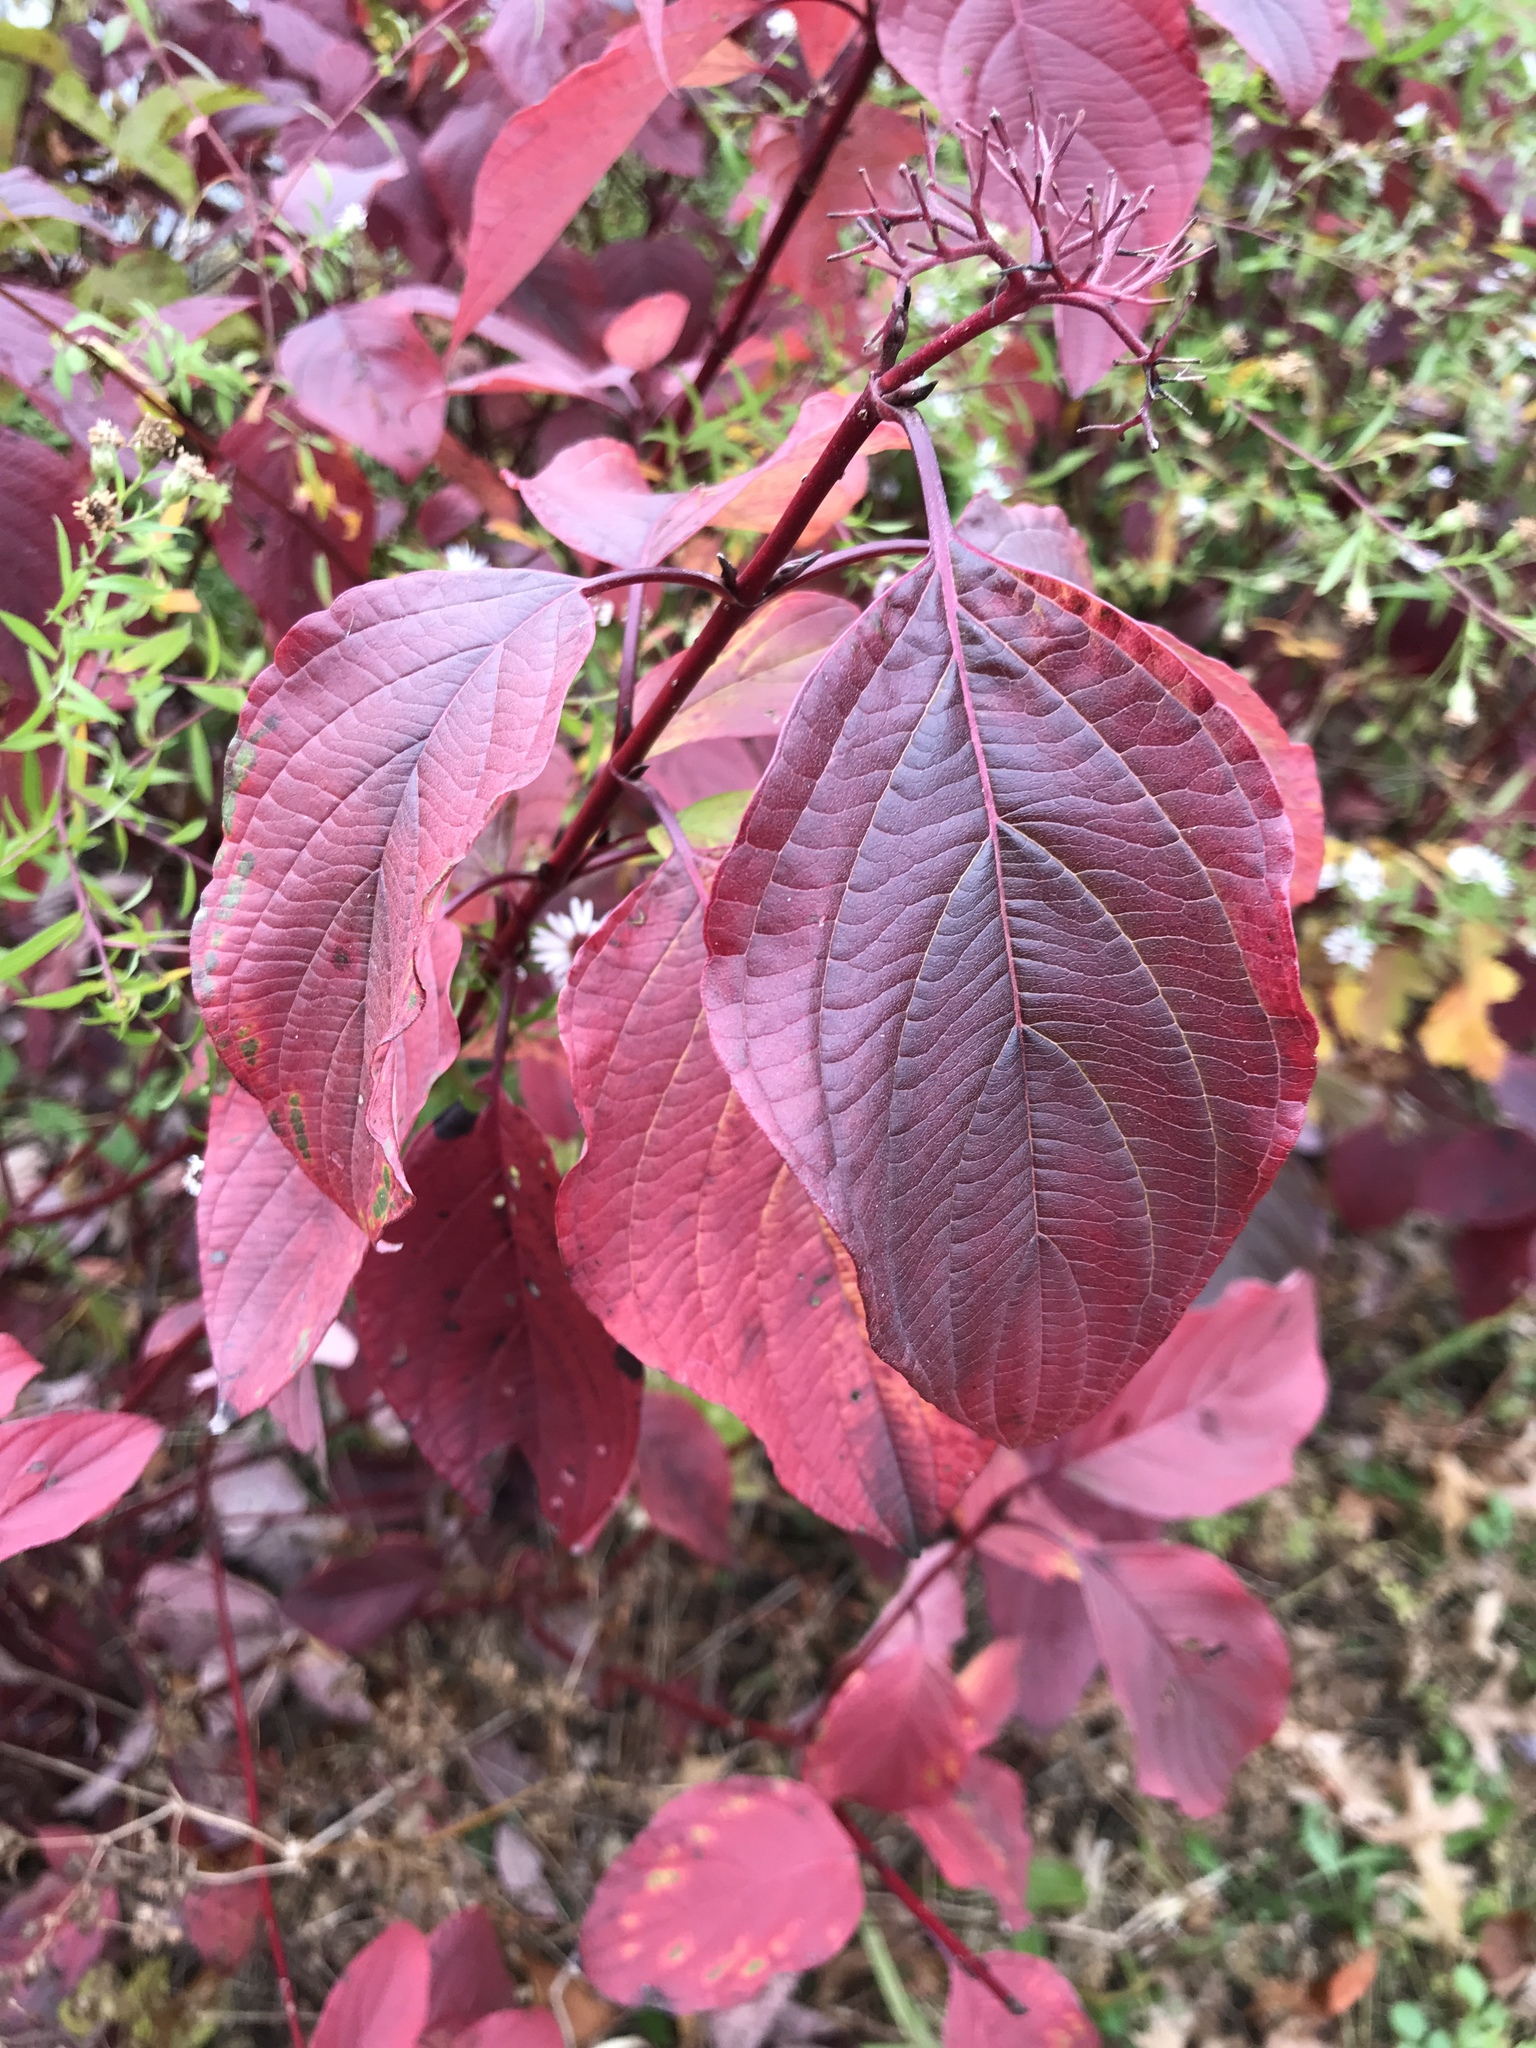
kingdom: Plantae
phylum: Tracheophyta
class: Magnoliopsida
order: Cornales
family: Cornaceae
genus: Cornus
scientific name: Cornus sericea
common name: Red-osier dogwood
